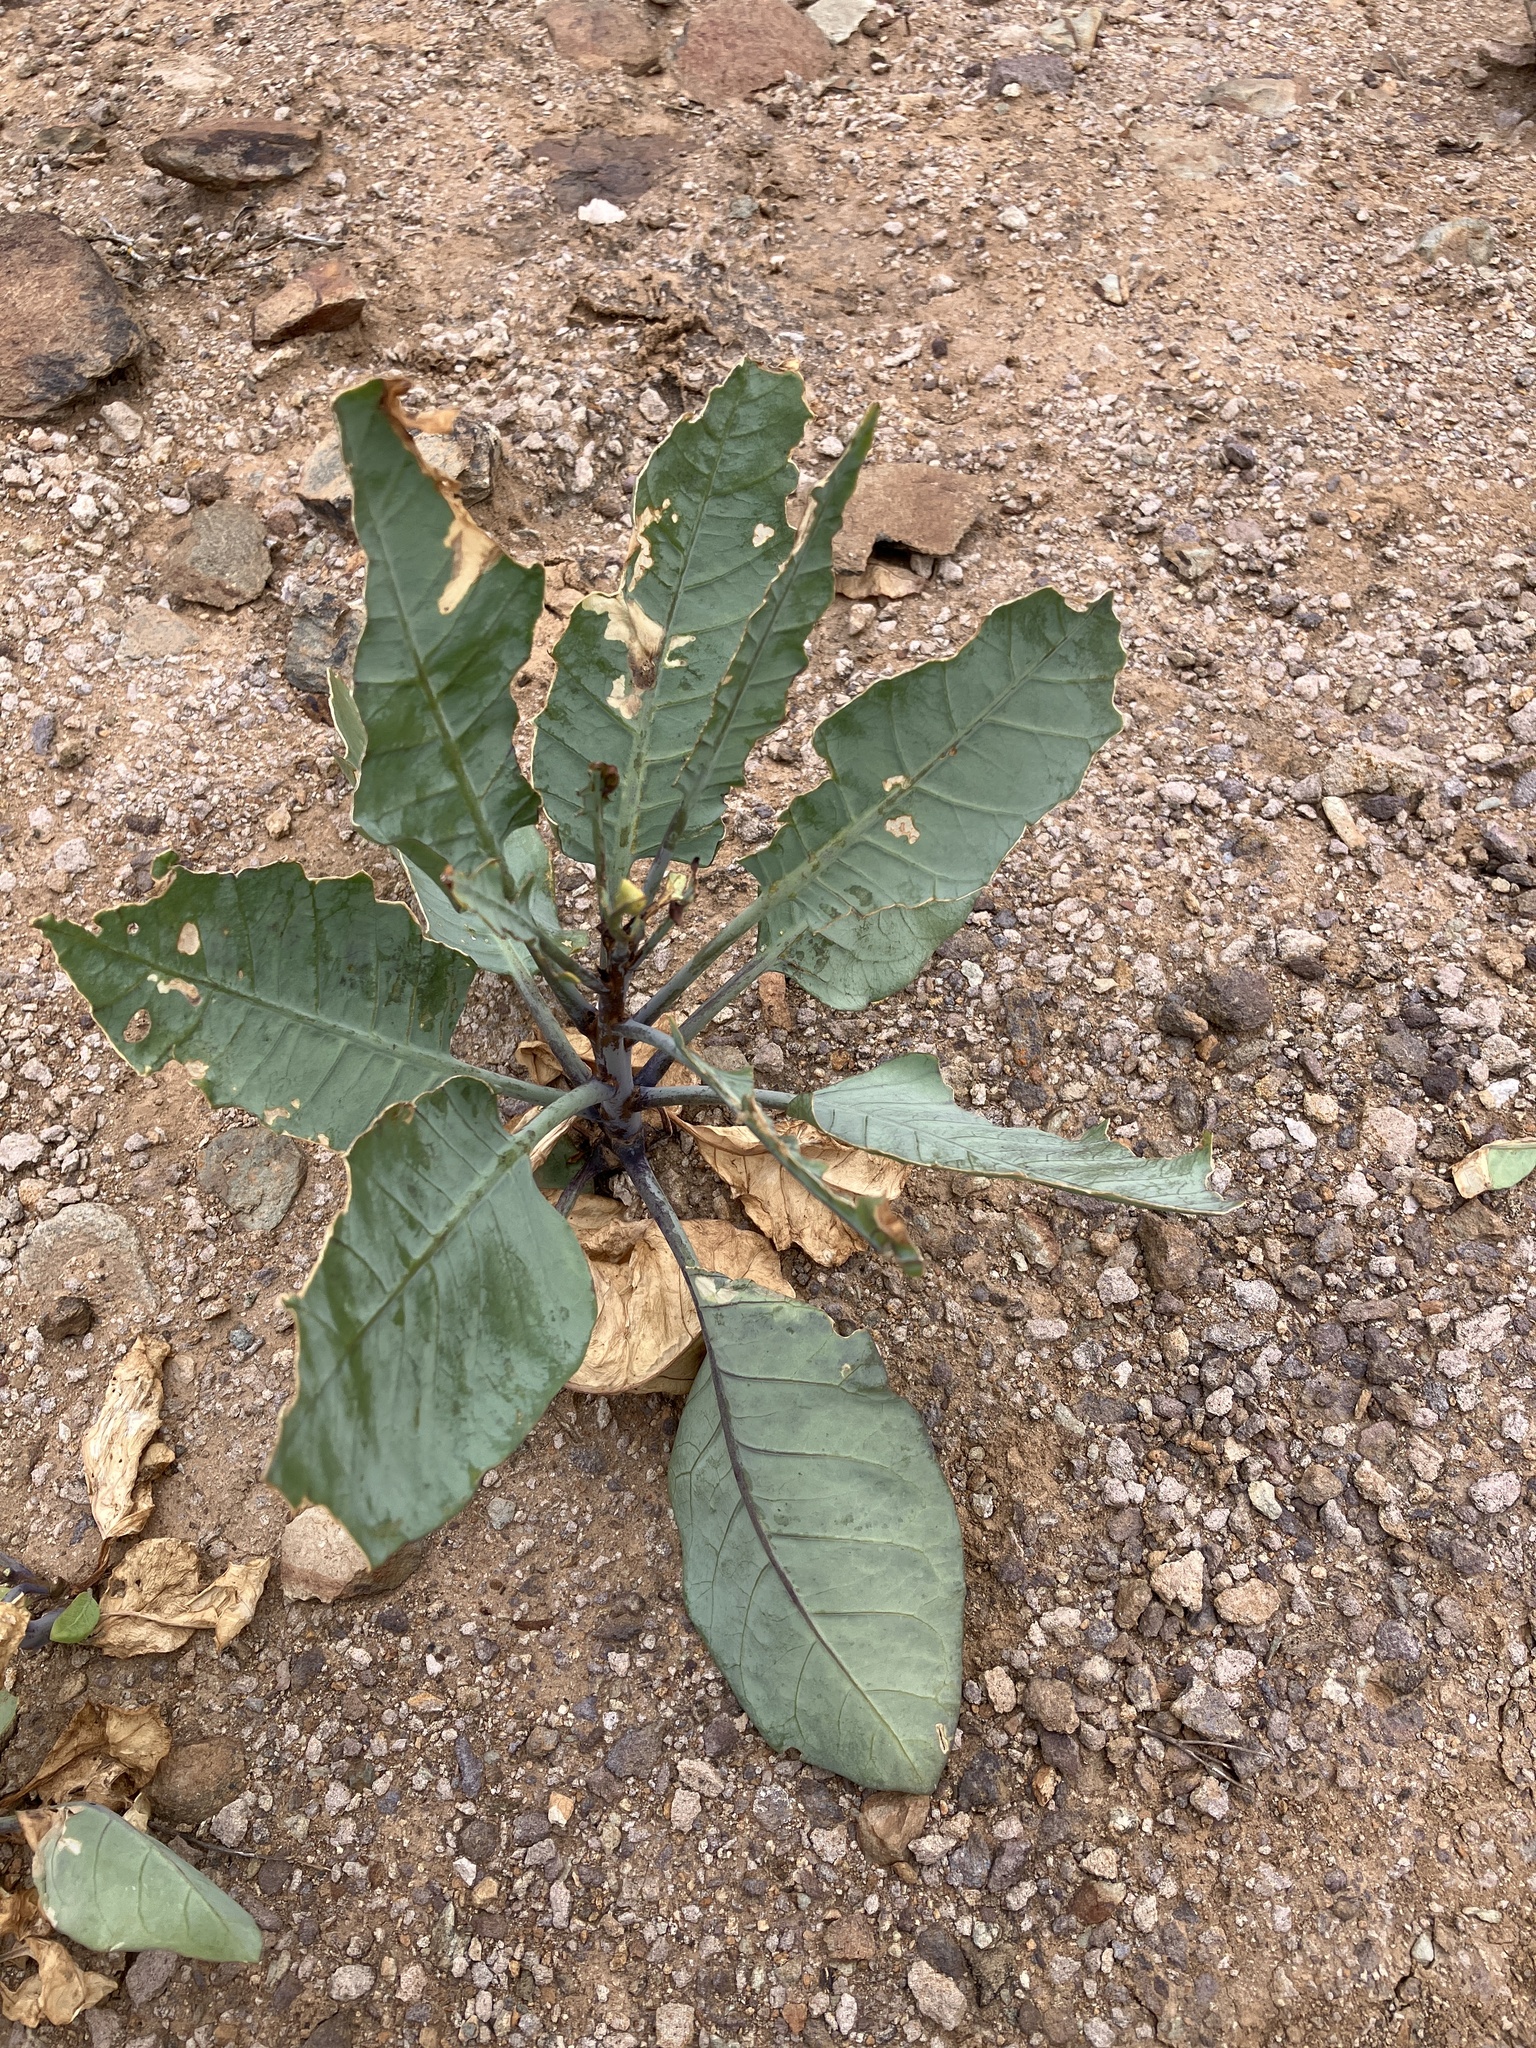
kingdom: Plantae
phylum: Tracheophyta
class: Magnoliopsida
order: Solanales
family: Solanaceae
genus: Nicotiana
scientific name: Nicotiana glauca
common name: Tree tobacco
